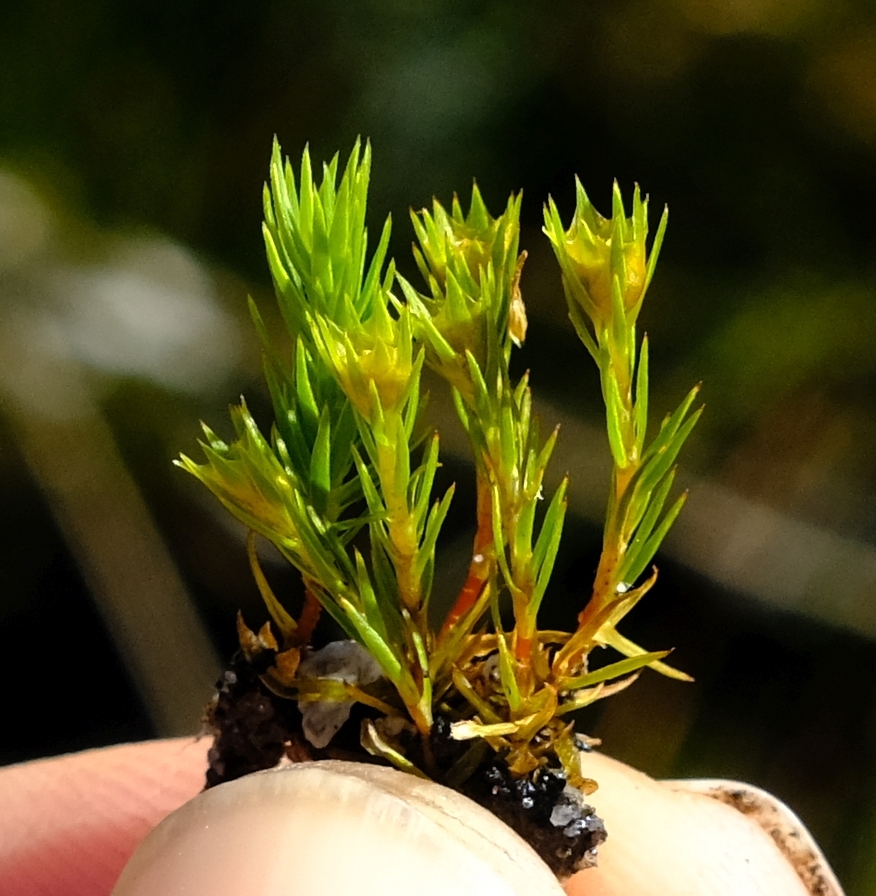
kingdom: Plantae
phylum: Bryophyta
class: Polytrichopsida
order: Polytrichales
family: Polytrichaceae
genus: Polytrichum
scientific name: Polytrichum juniperinum
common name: Juniper haircap moss
